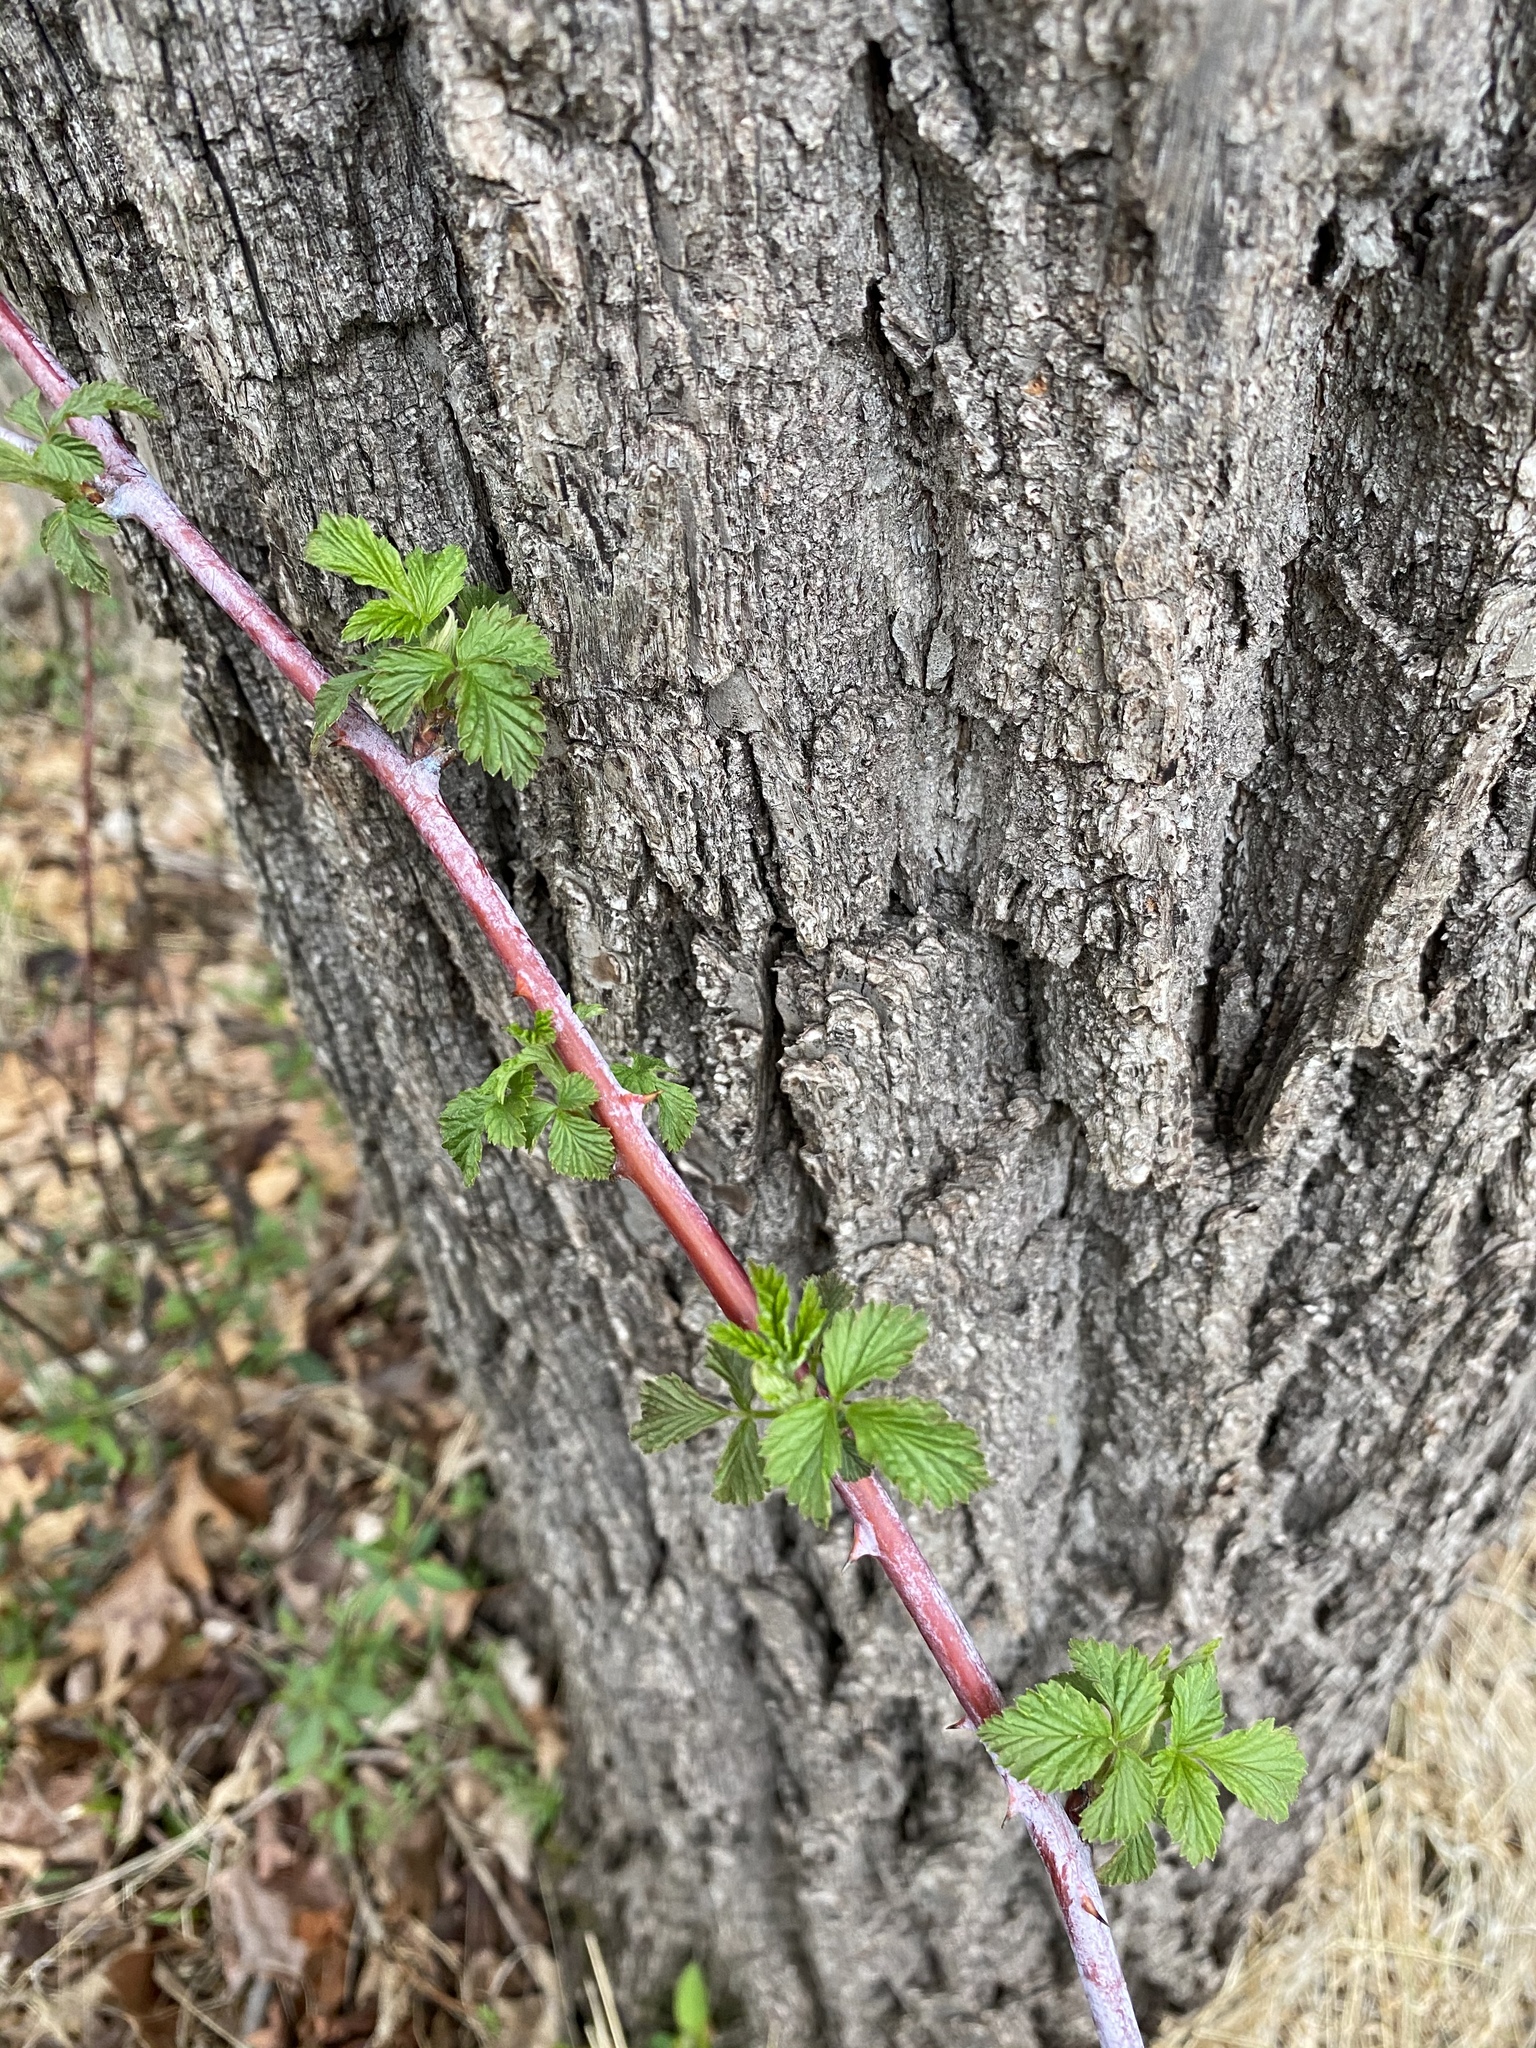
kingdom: Plantae
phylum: Tracheophyta
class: Magnoliopsida
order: Rosales
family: Rosaceae
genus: Rubus
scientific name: Rubus occidentalis
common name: Black raspberry
